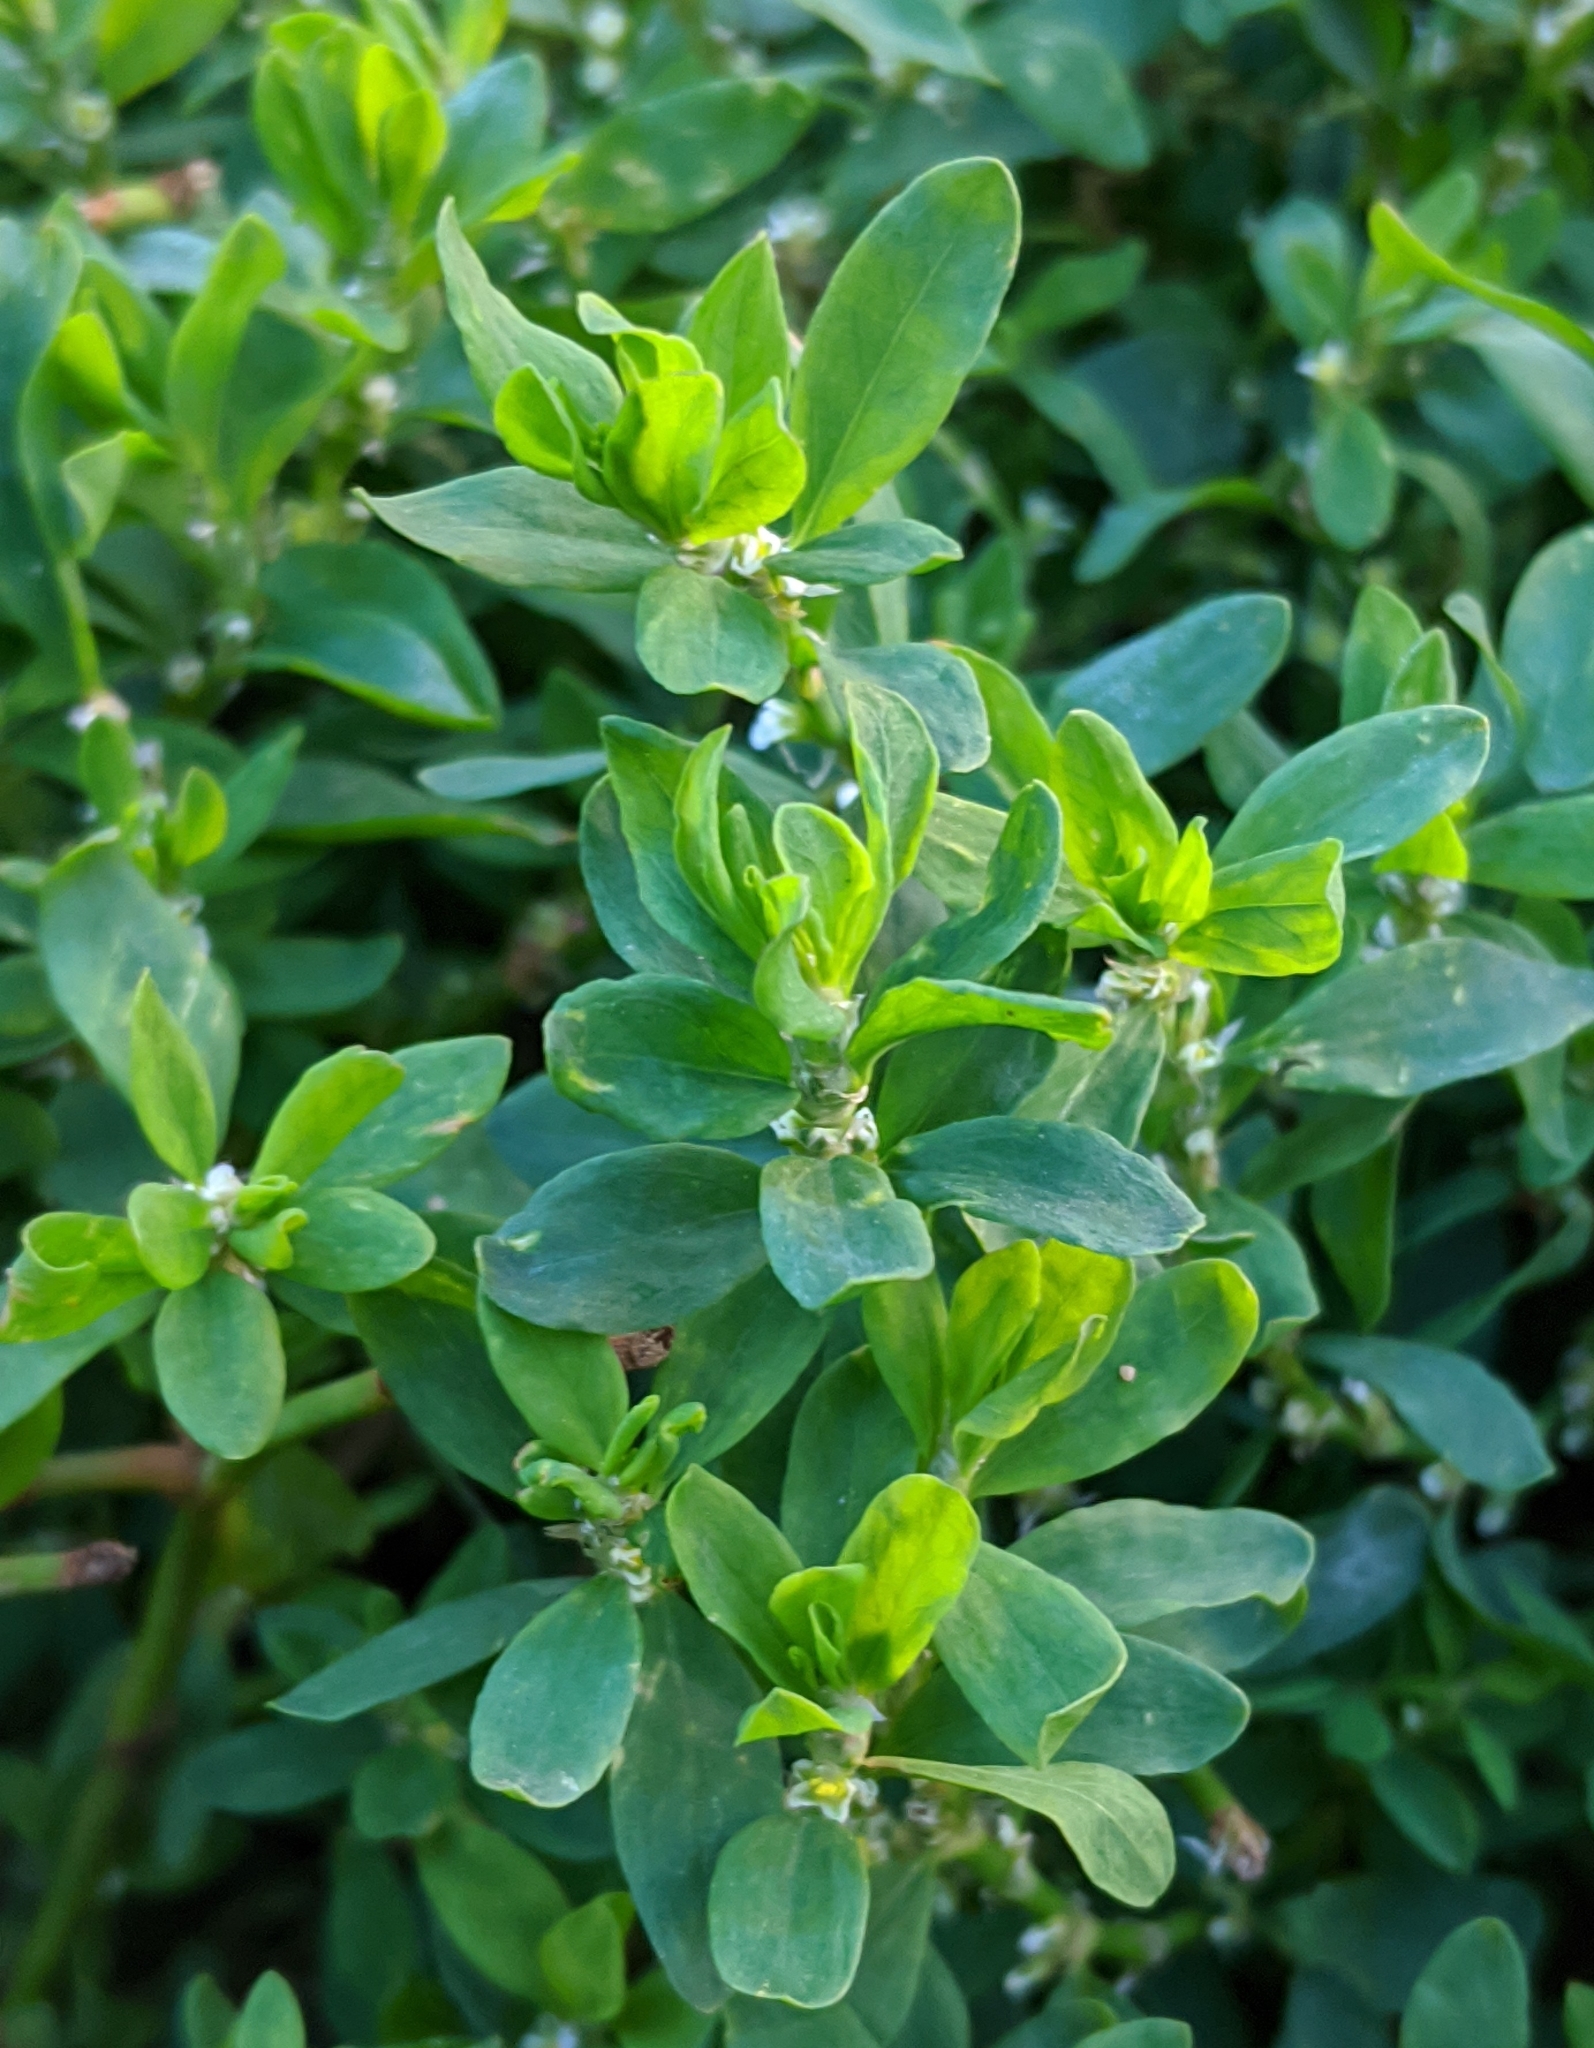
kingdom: Plantae
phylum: Tracheophyta
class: Magnoliopsida
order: Caryophyllales
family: Polygonaceae
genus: Polygonum
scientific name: Polygonum
